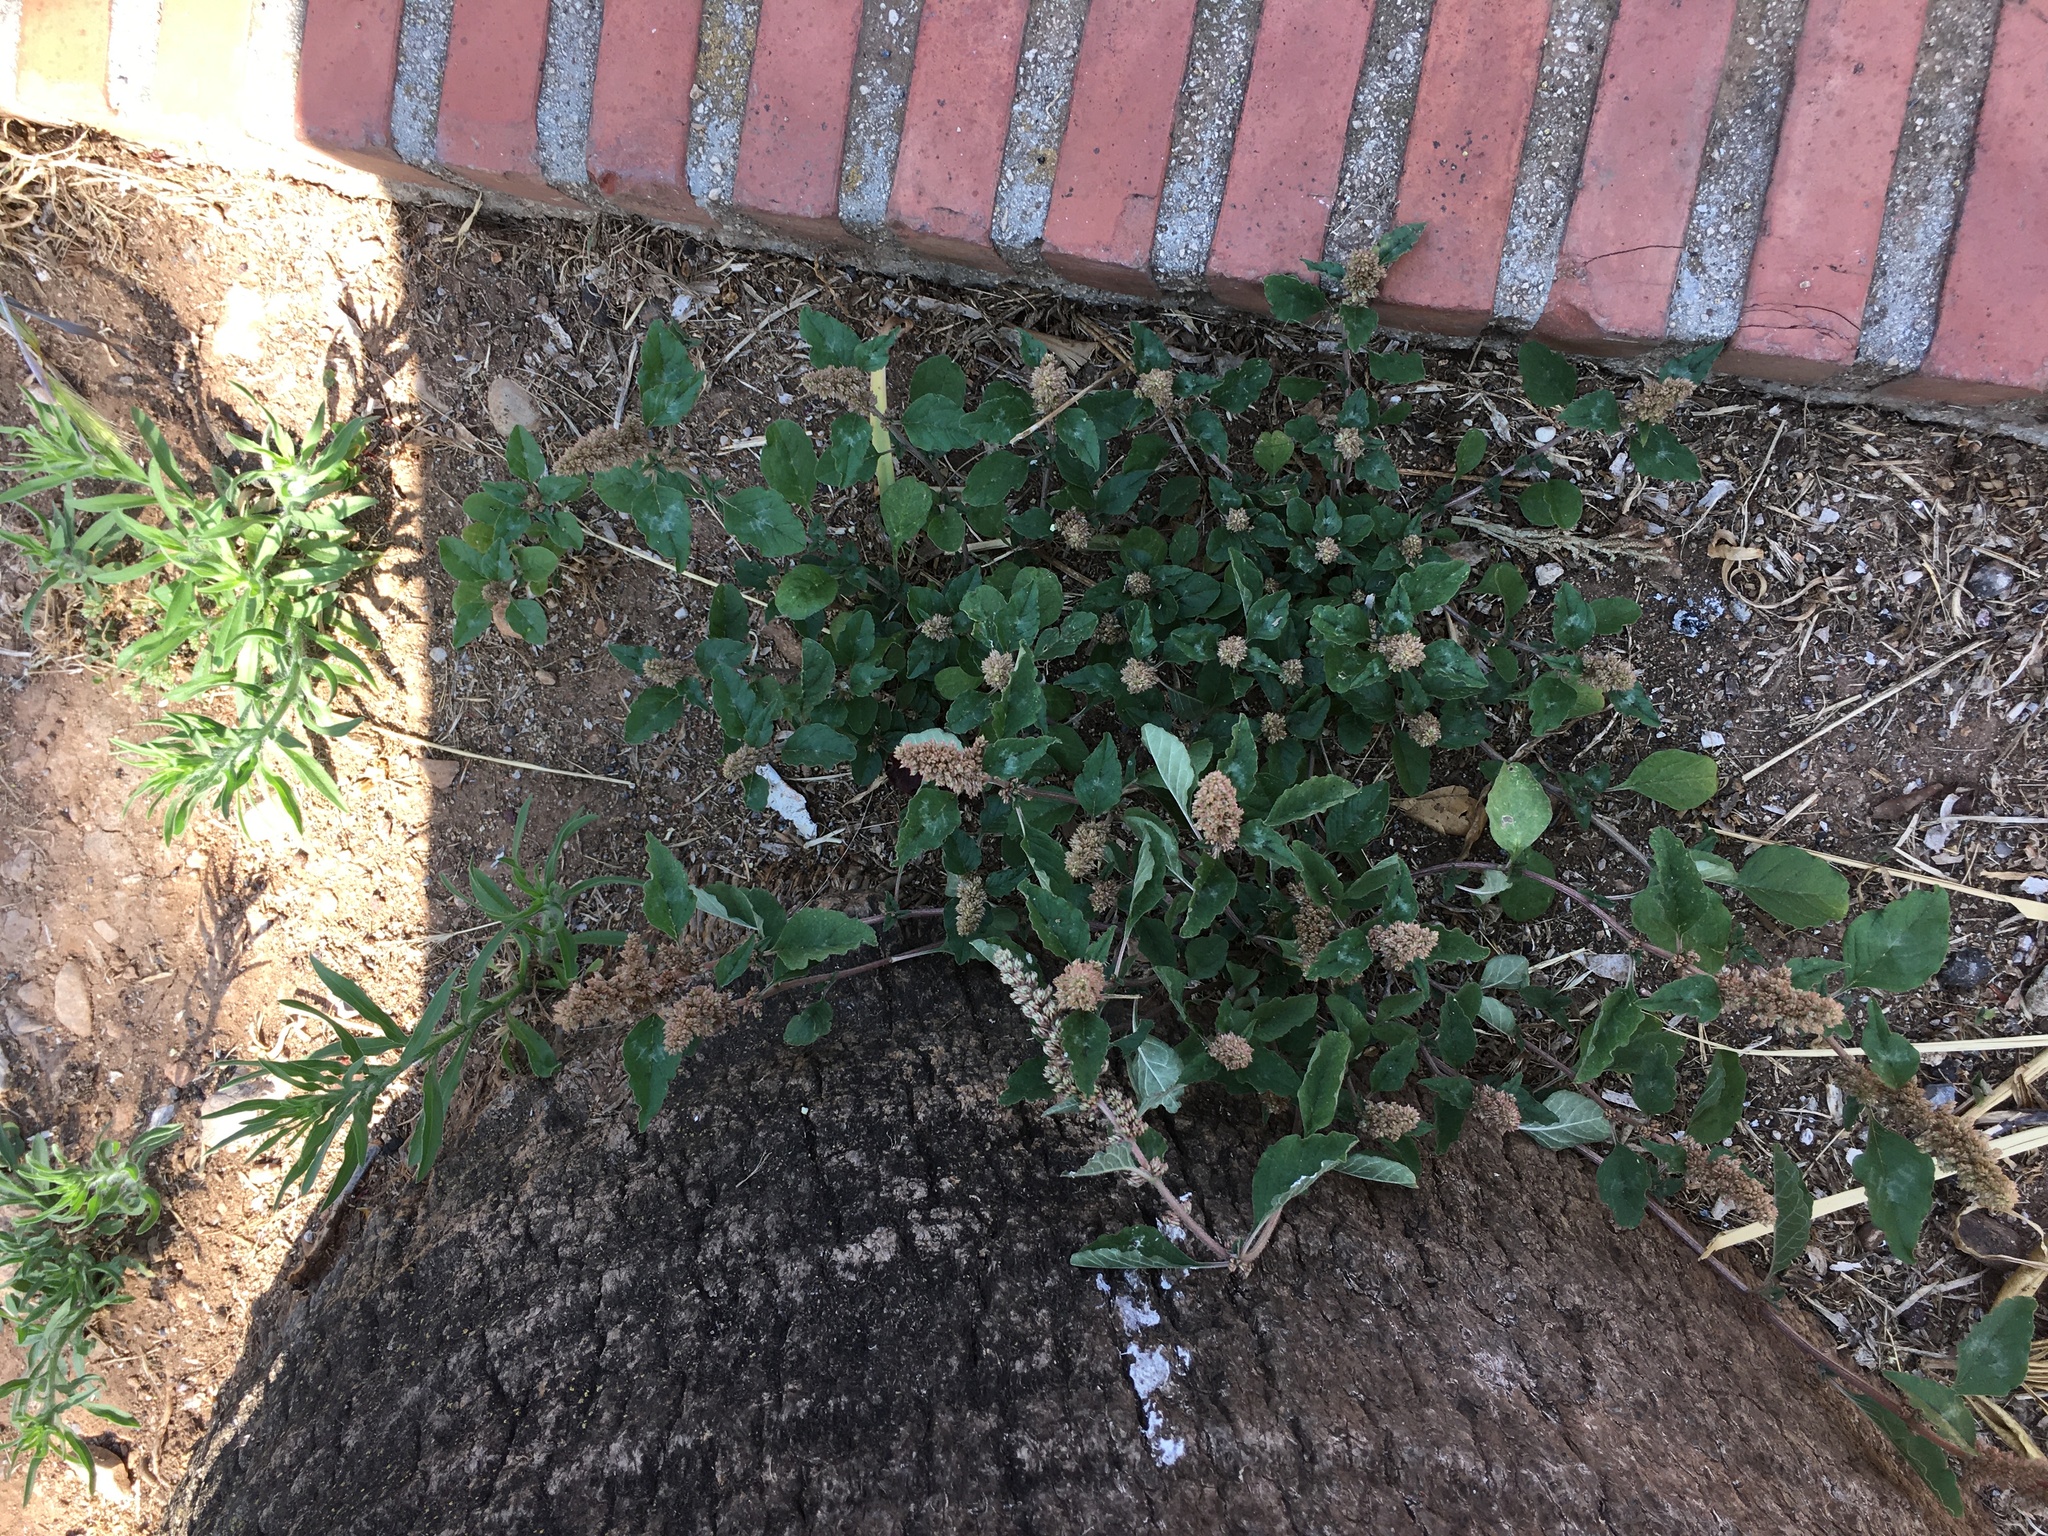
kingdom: Plantae
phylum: Tracheophyta
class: Magnoliopsida
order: Caryophyllales
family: Amaranthaceae
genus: Amaranthus
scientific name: Amaranthus deflexus
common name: Perennial pigweed
